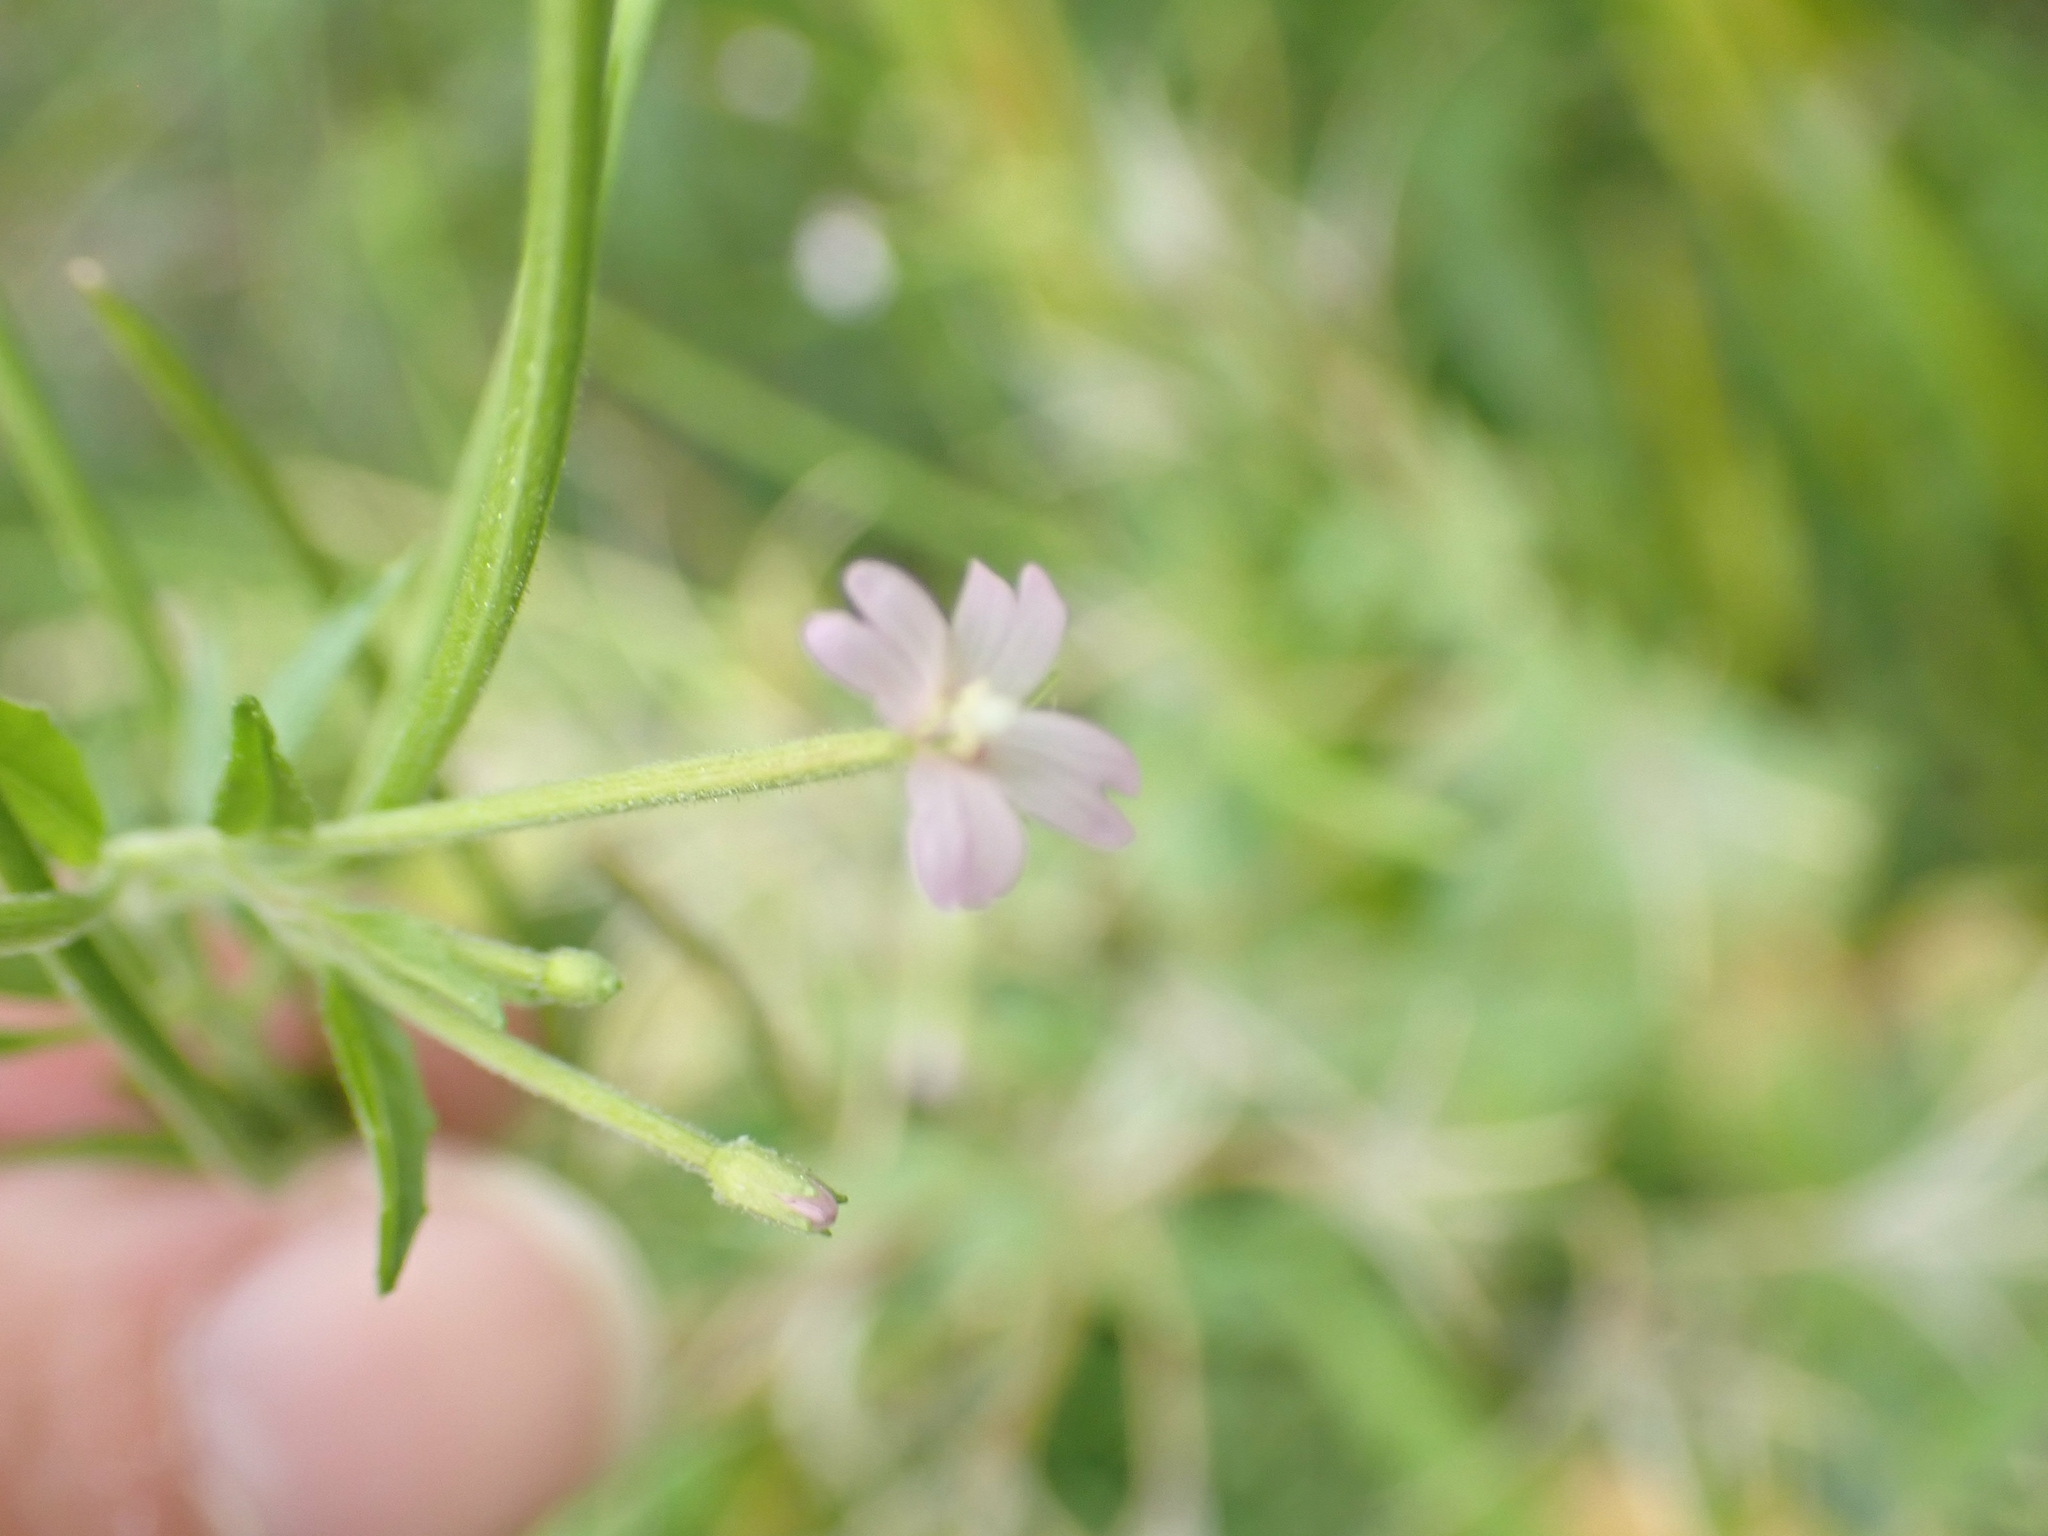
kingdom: Plantae
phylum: Tracheophyta
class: Magnoliopsida
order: Myrtales
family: Onagraceae
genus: Epilobium
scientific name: Epilobium ciliatum
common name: American willowherb
